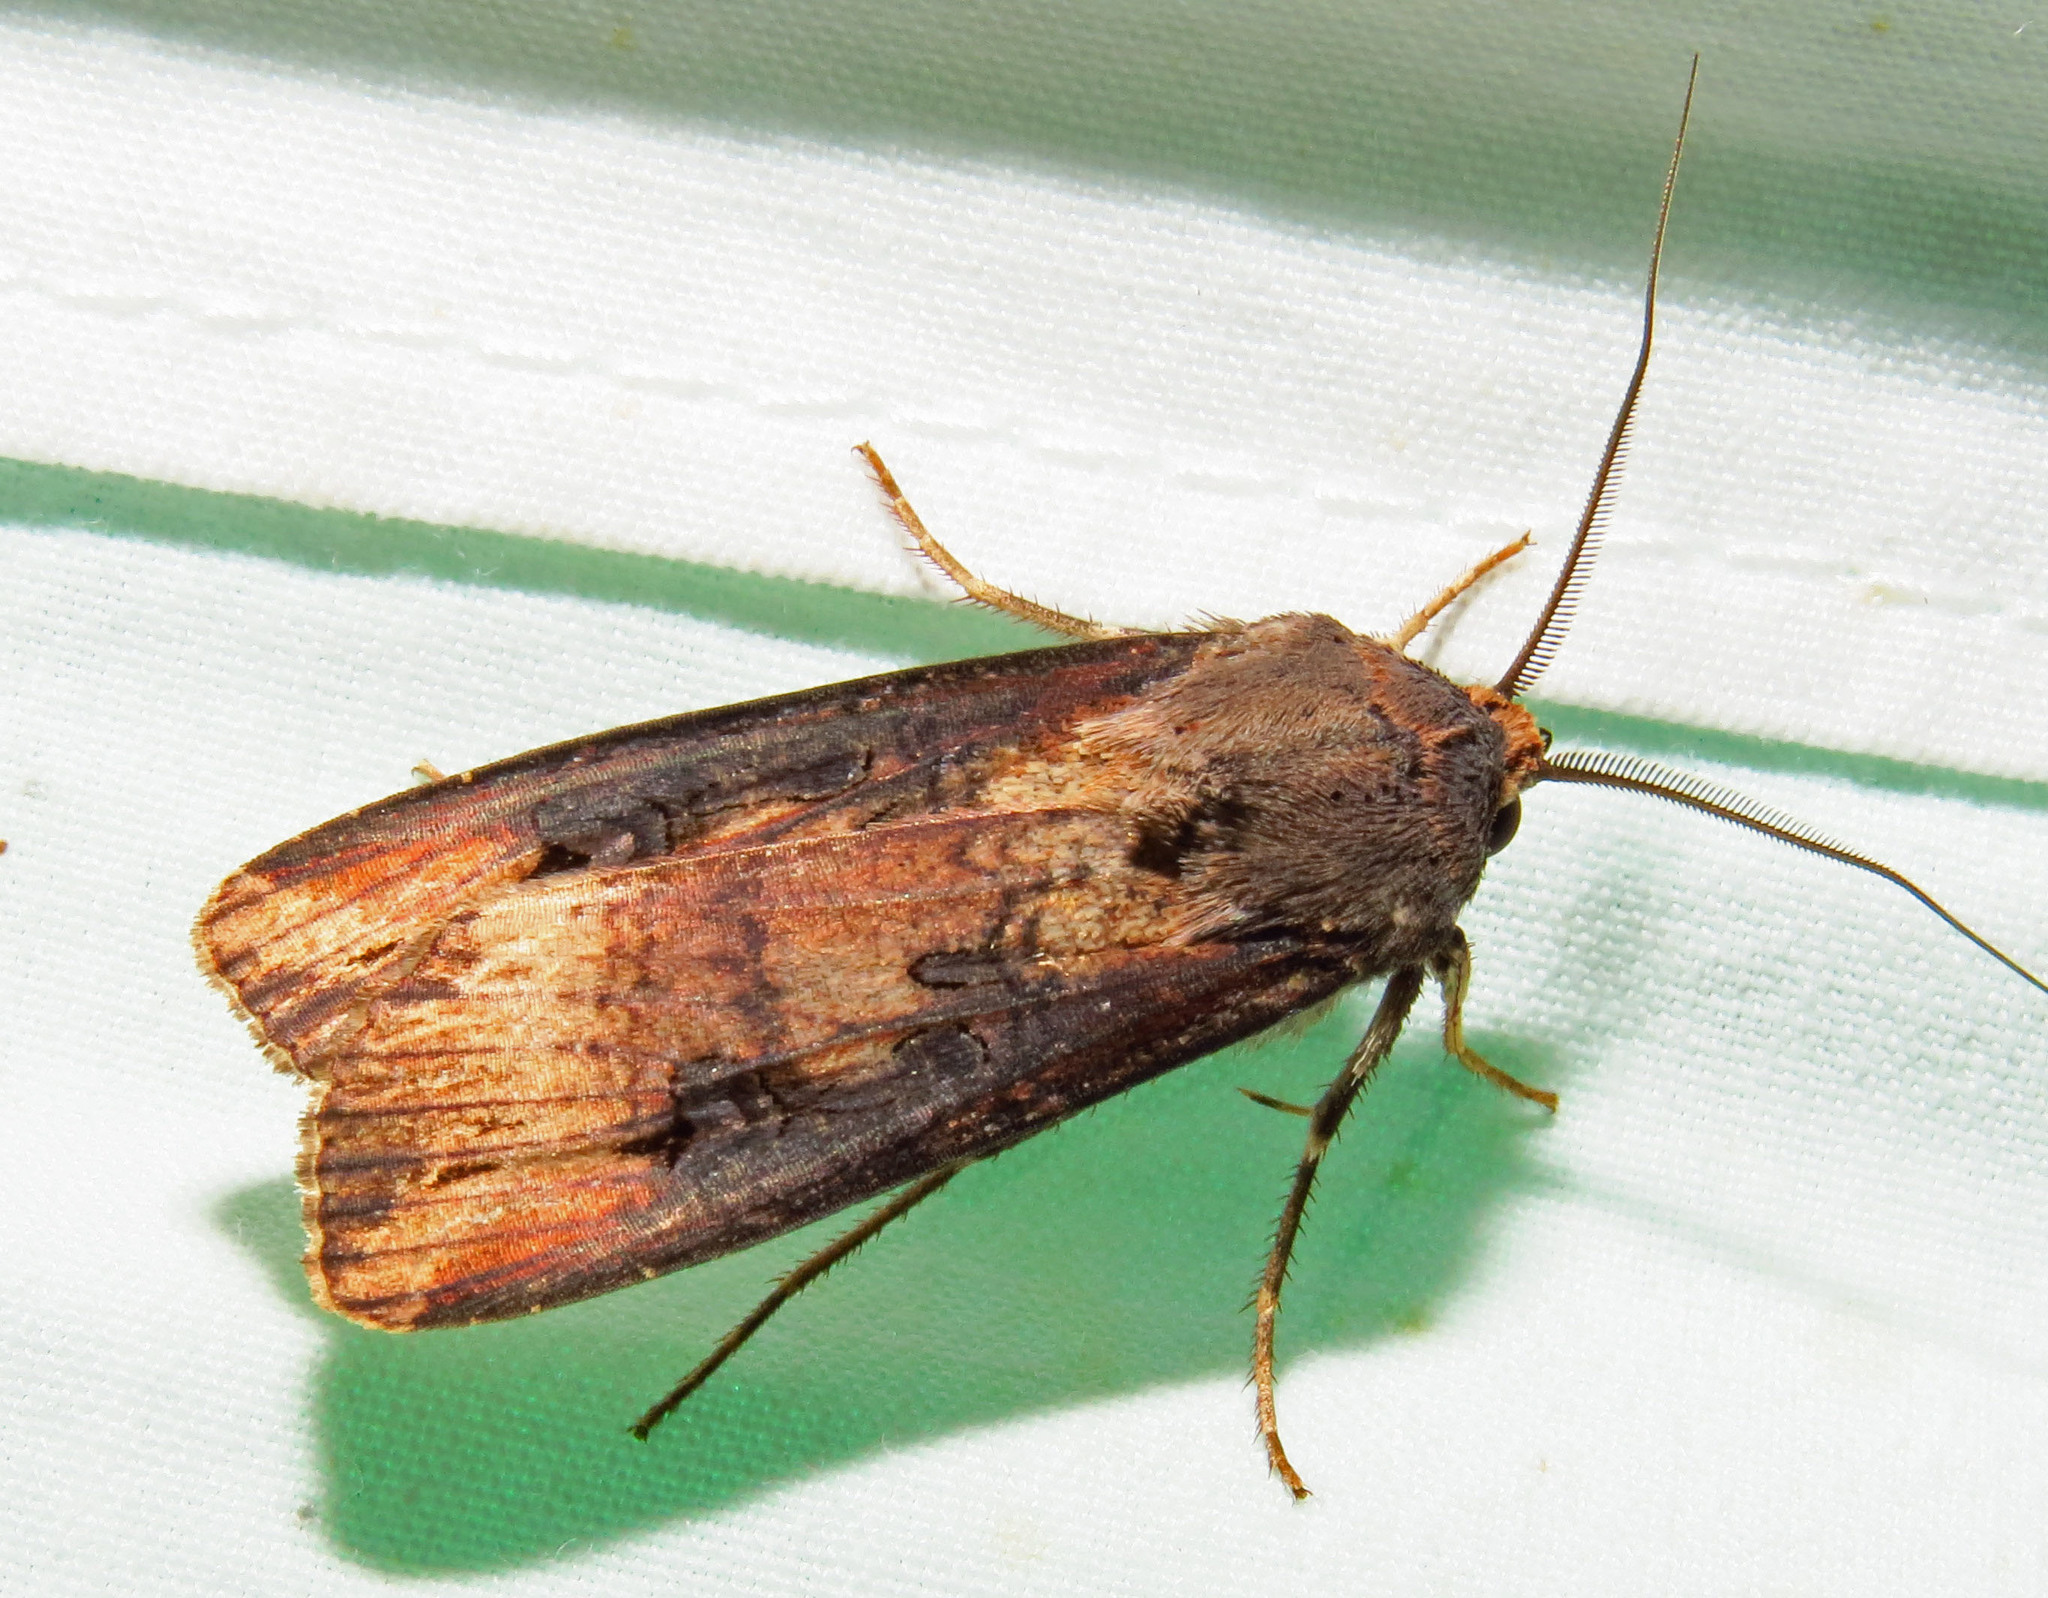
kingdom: Animalia
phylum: Arthropoda
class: Insecta
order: Lepidoptera
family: Noctuidae
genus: Agrotis
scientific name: Agrotis ipsilon
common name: Dark sword-grass
